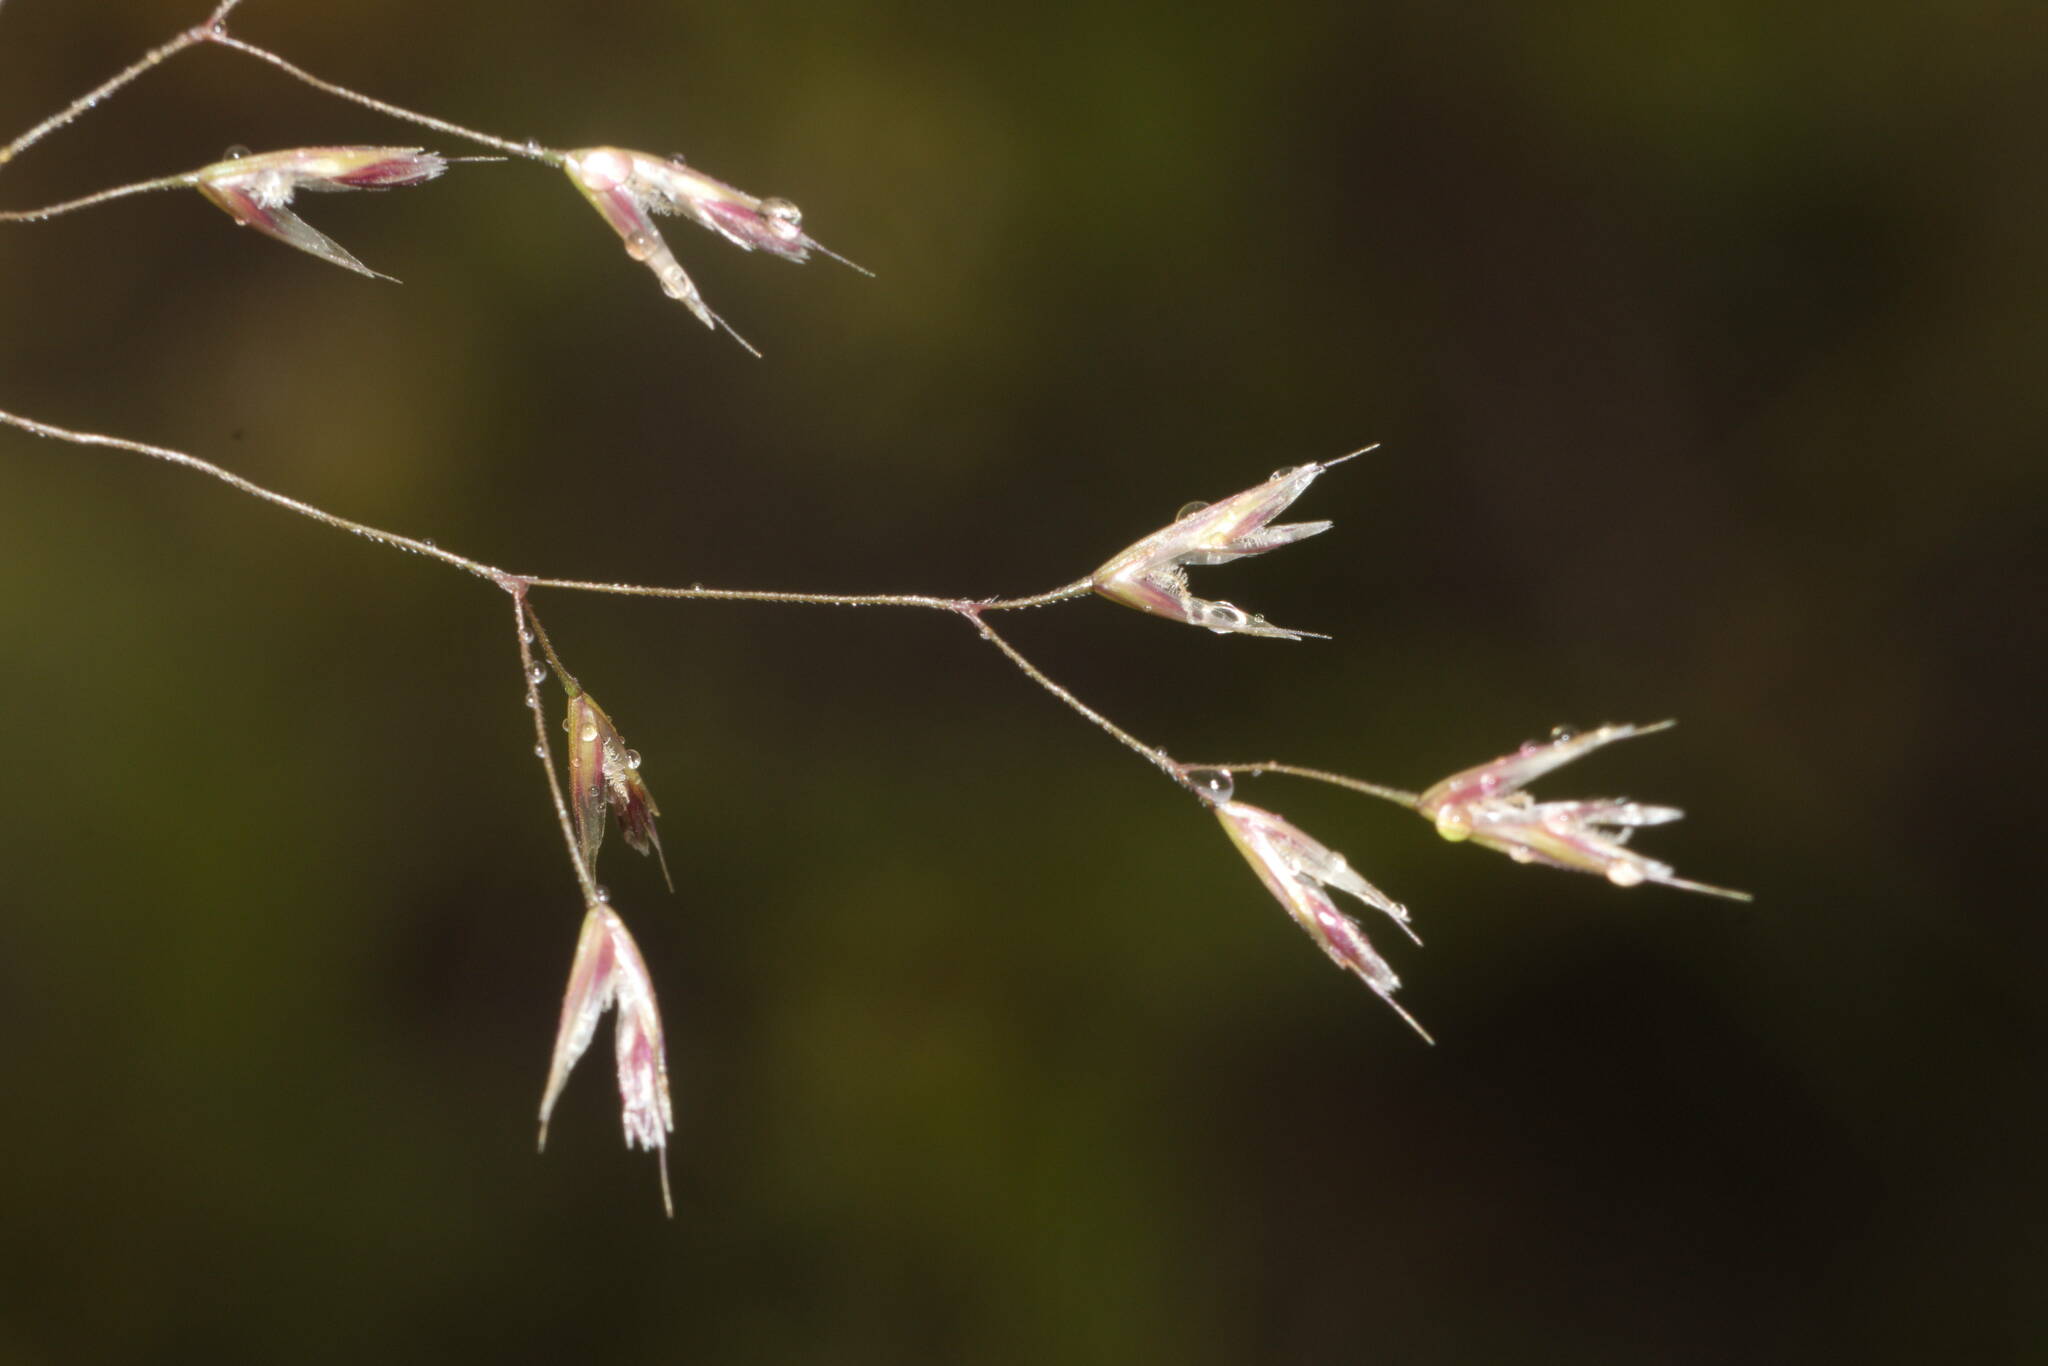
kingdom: Plantae
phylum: Tracheophyta
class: Liliopsida
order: Poales
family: Poaceae
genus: Deschampsia
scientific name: Deschampsia nubigena
